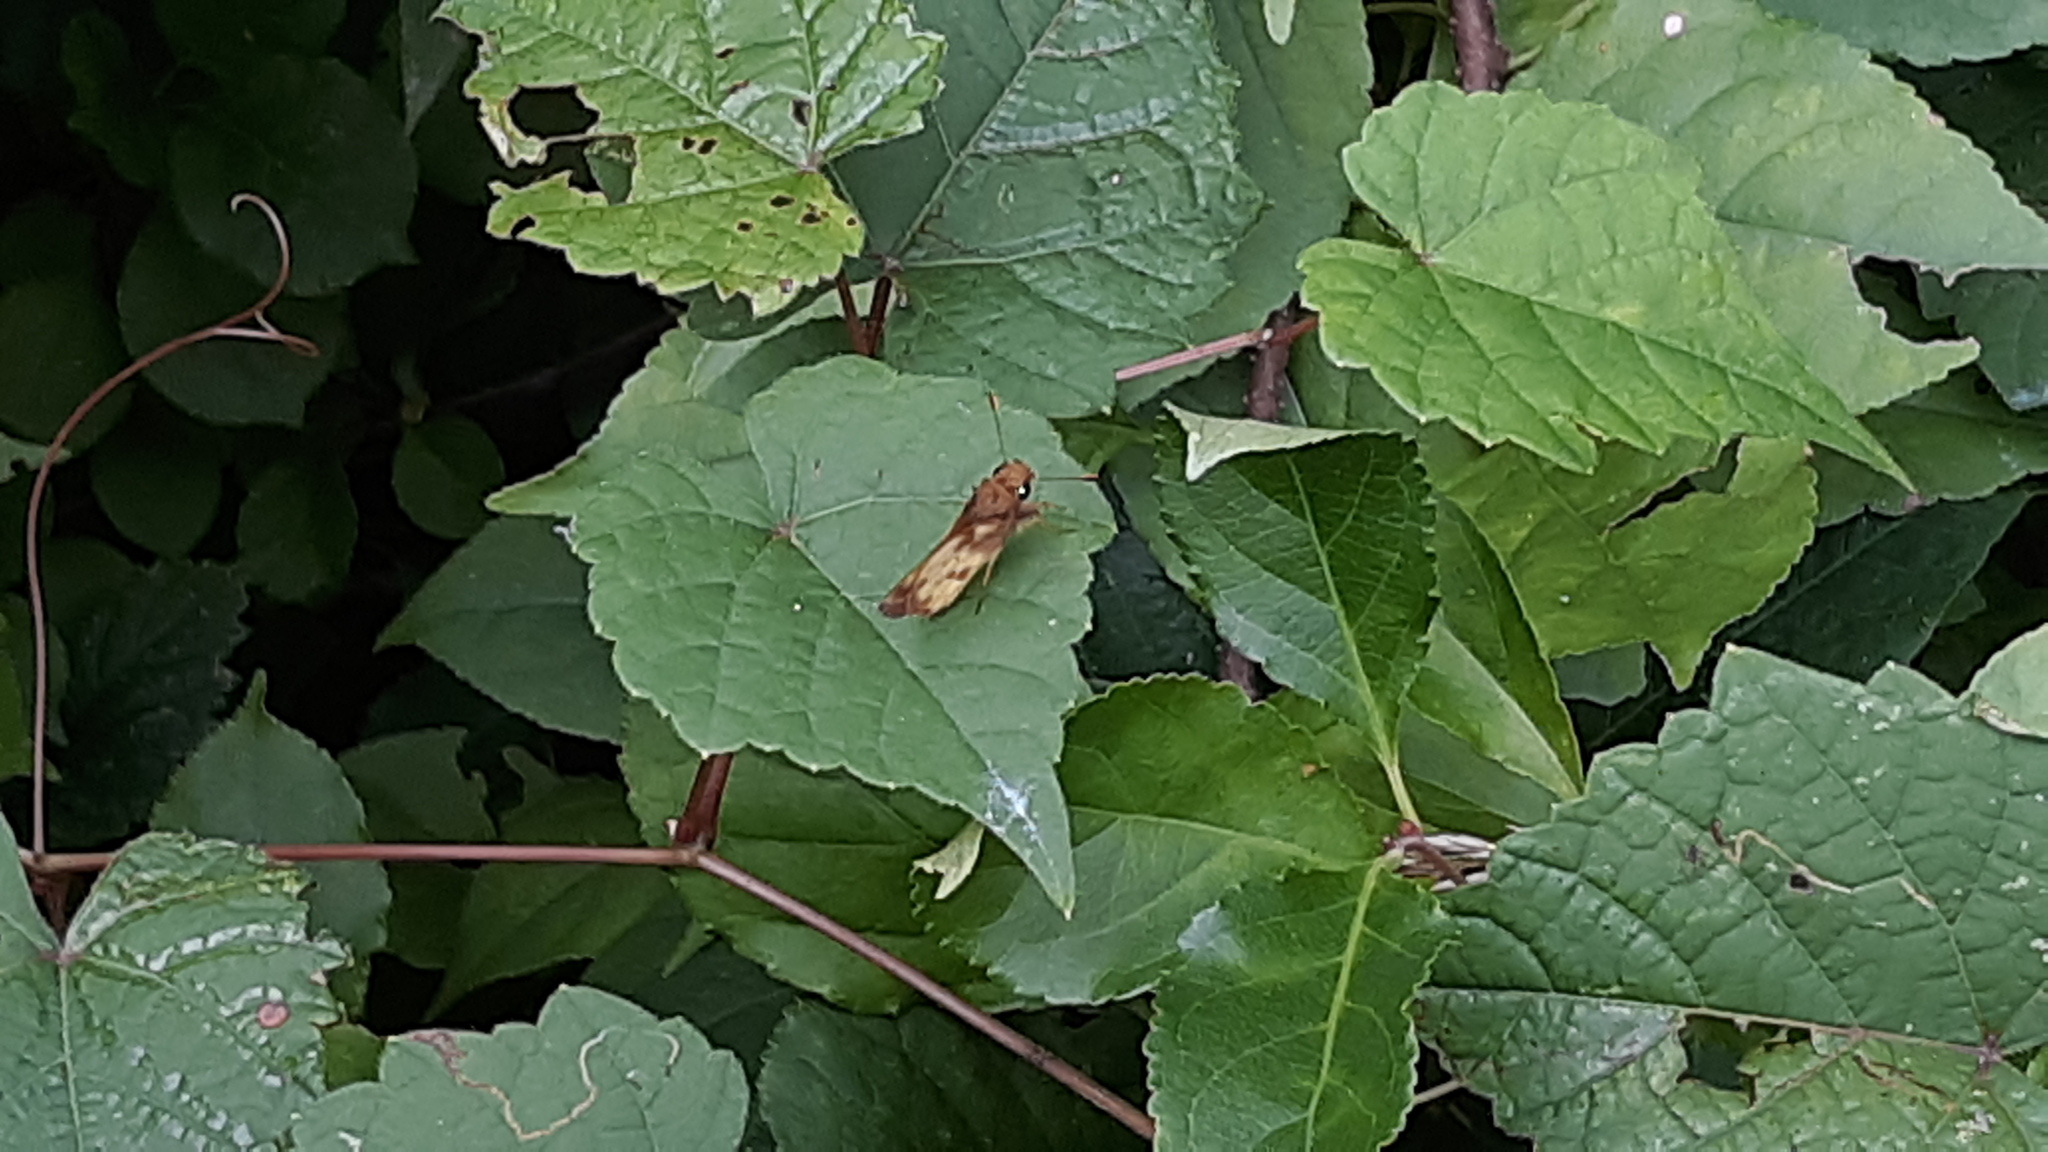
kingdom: Animalia
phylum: Arthropoda
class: Insecta
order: Lepidoptera
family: Hesperiidae
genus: Lon
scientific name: Lon zabulon
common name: Zabulon skipper
